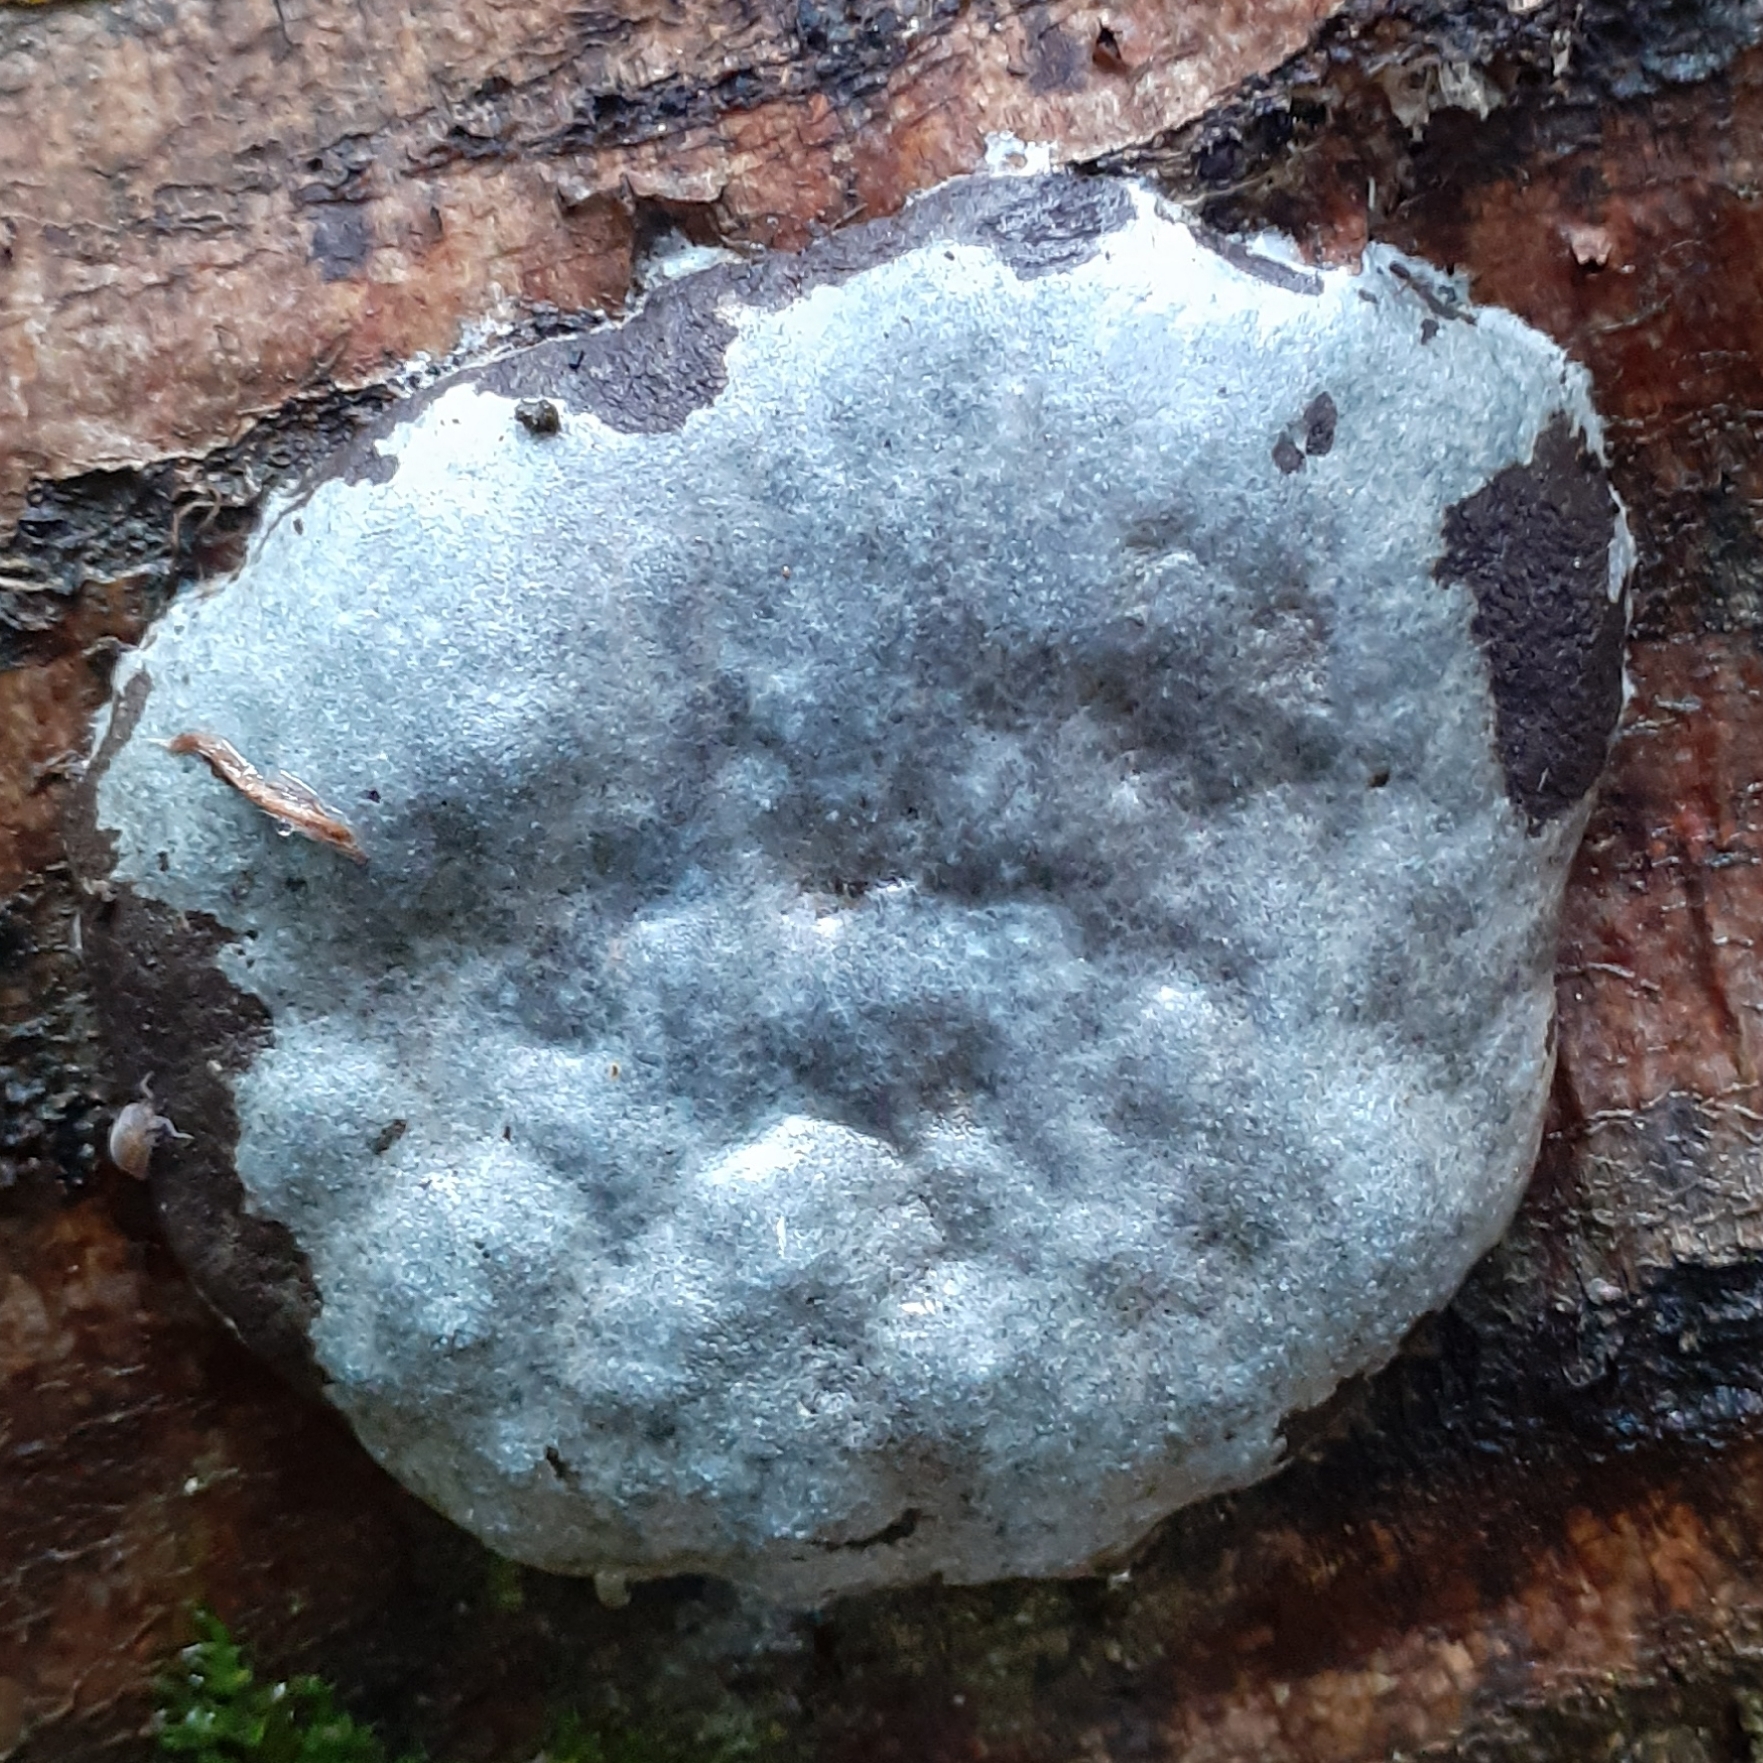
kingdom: Protozoa
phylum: Mycetozoa
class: Myxomycetes
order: Cribrariales
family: Tubiferaceae
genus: Reticularia
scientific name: Reticularia lycoperdon
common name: False puffball
